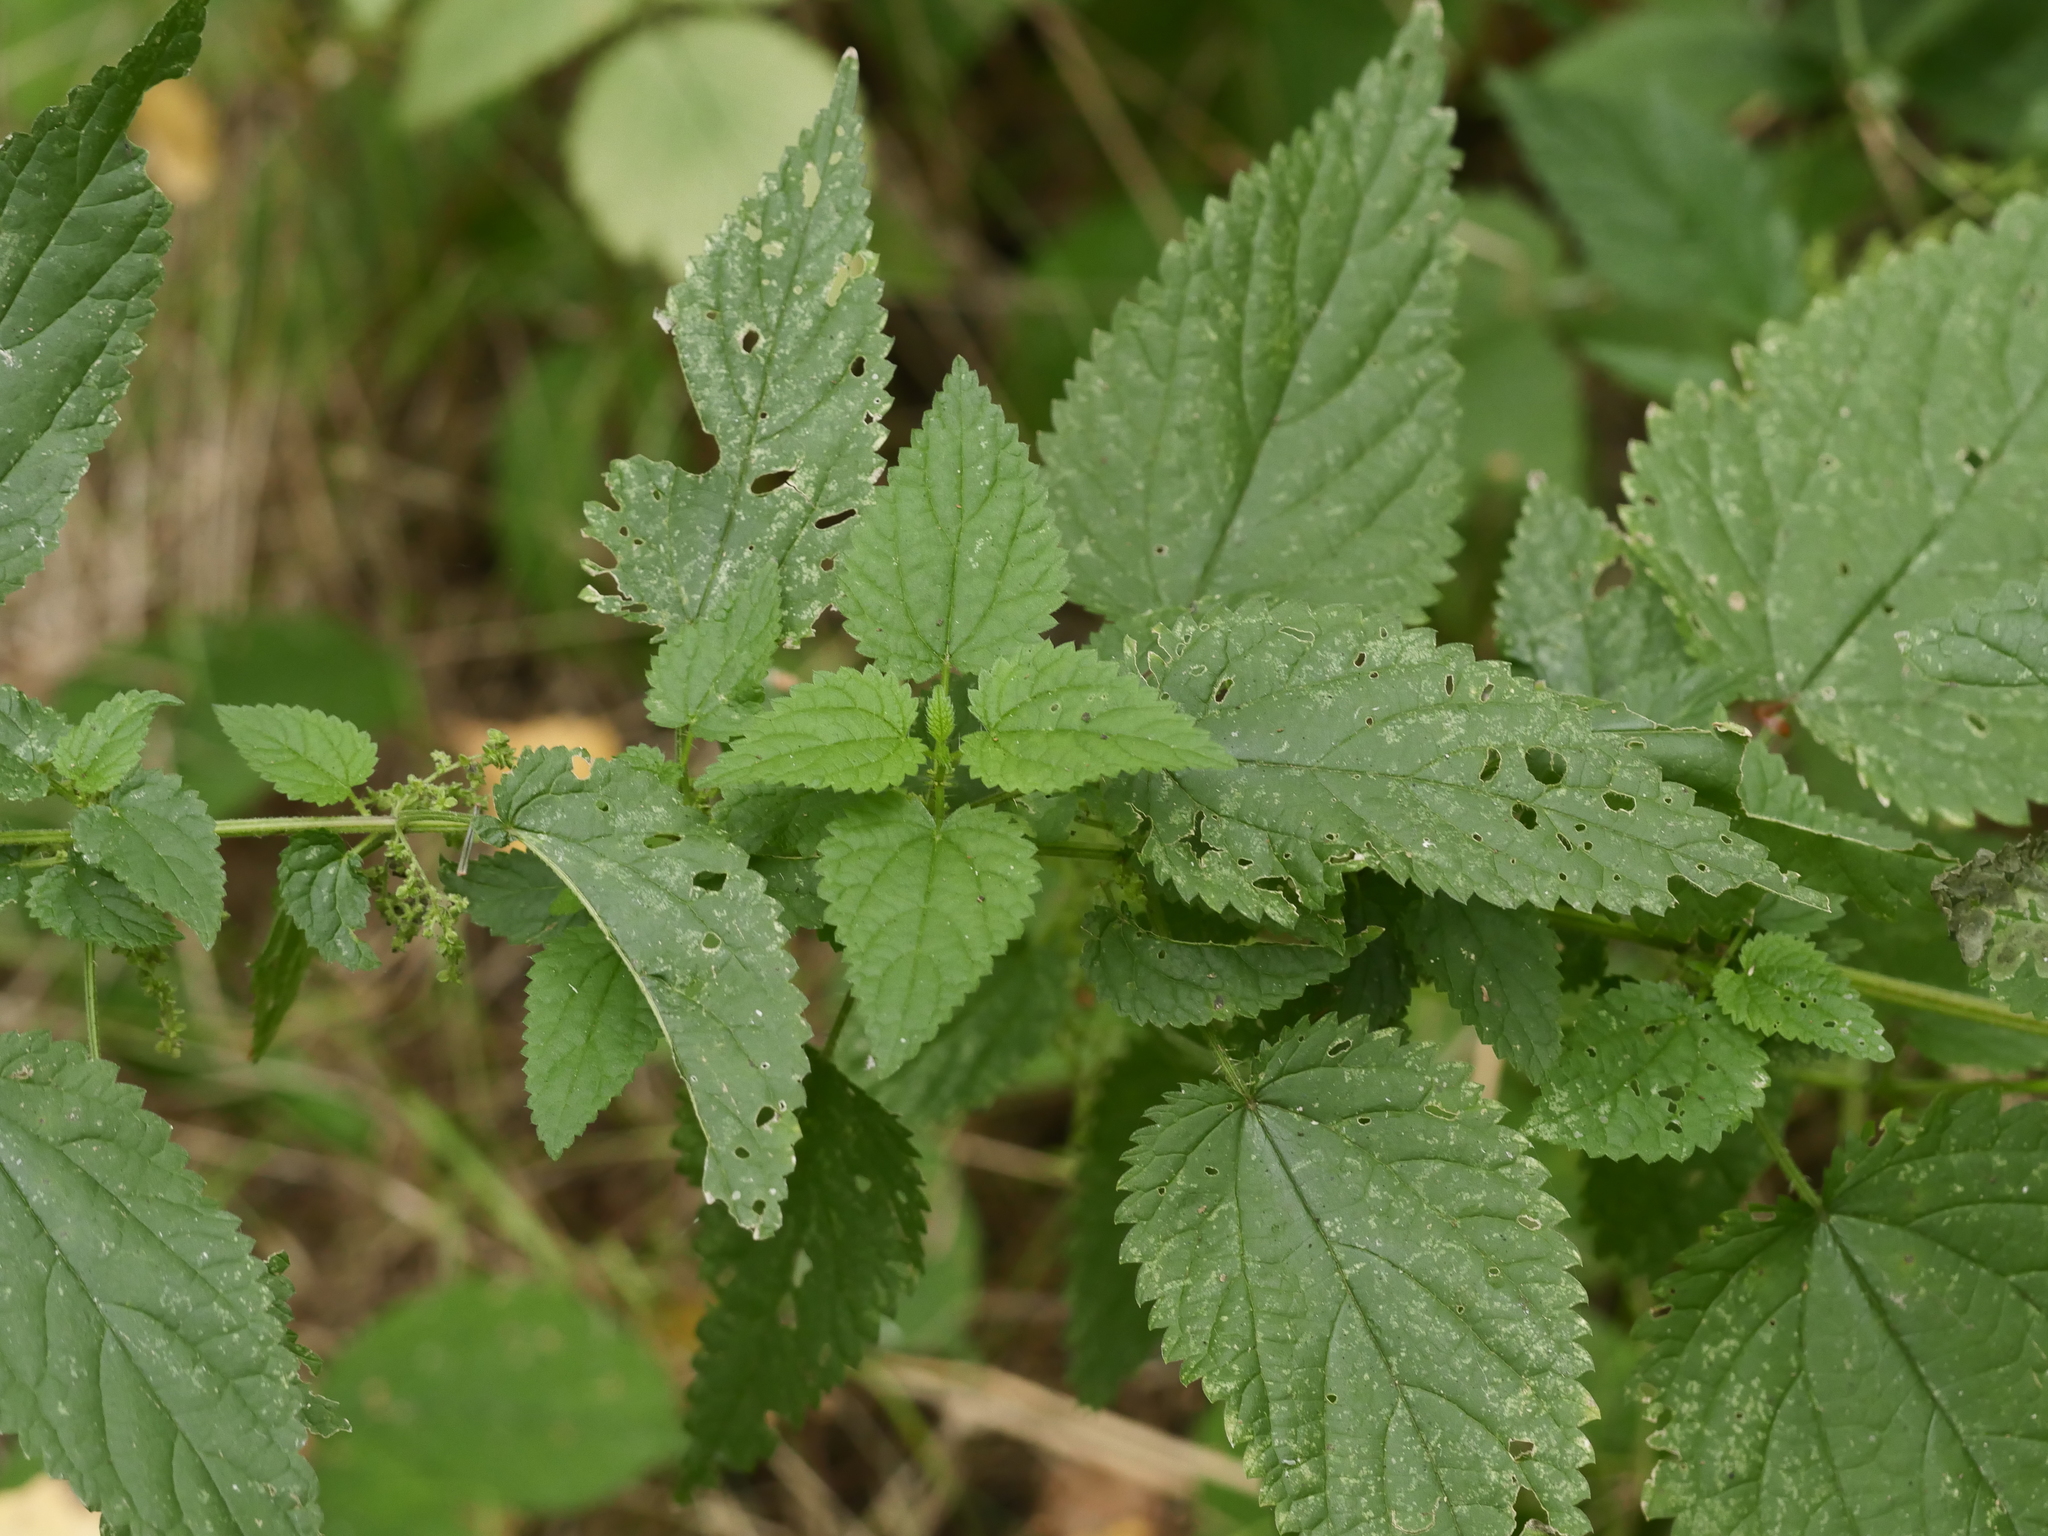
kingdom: Plantae
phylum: Tracheophyta
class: Magnoliopsida
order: Rosales
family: Urticaceae
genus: Urtica
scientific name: Urtica dioica
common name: Common nettle
